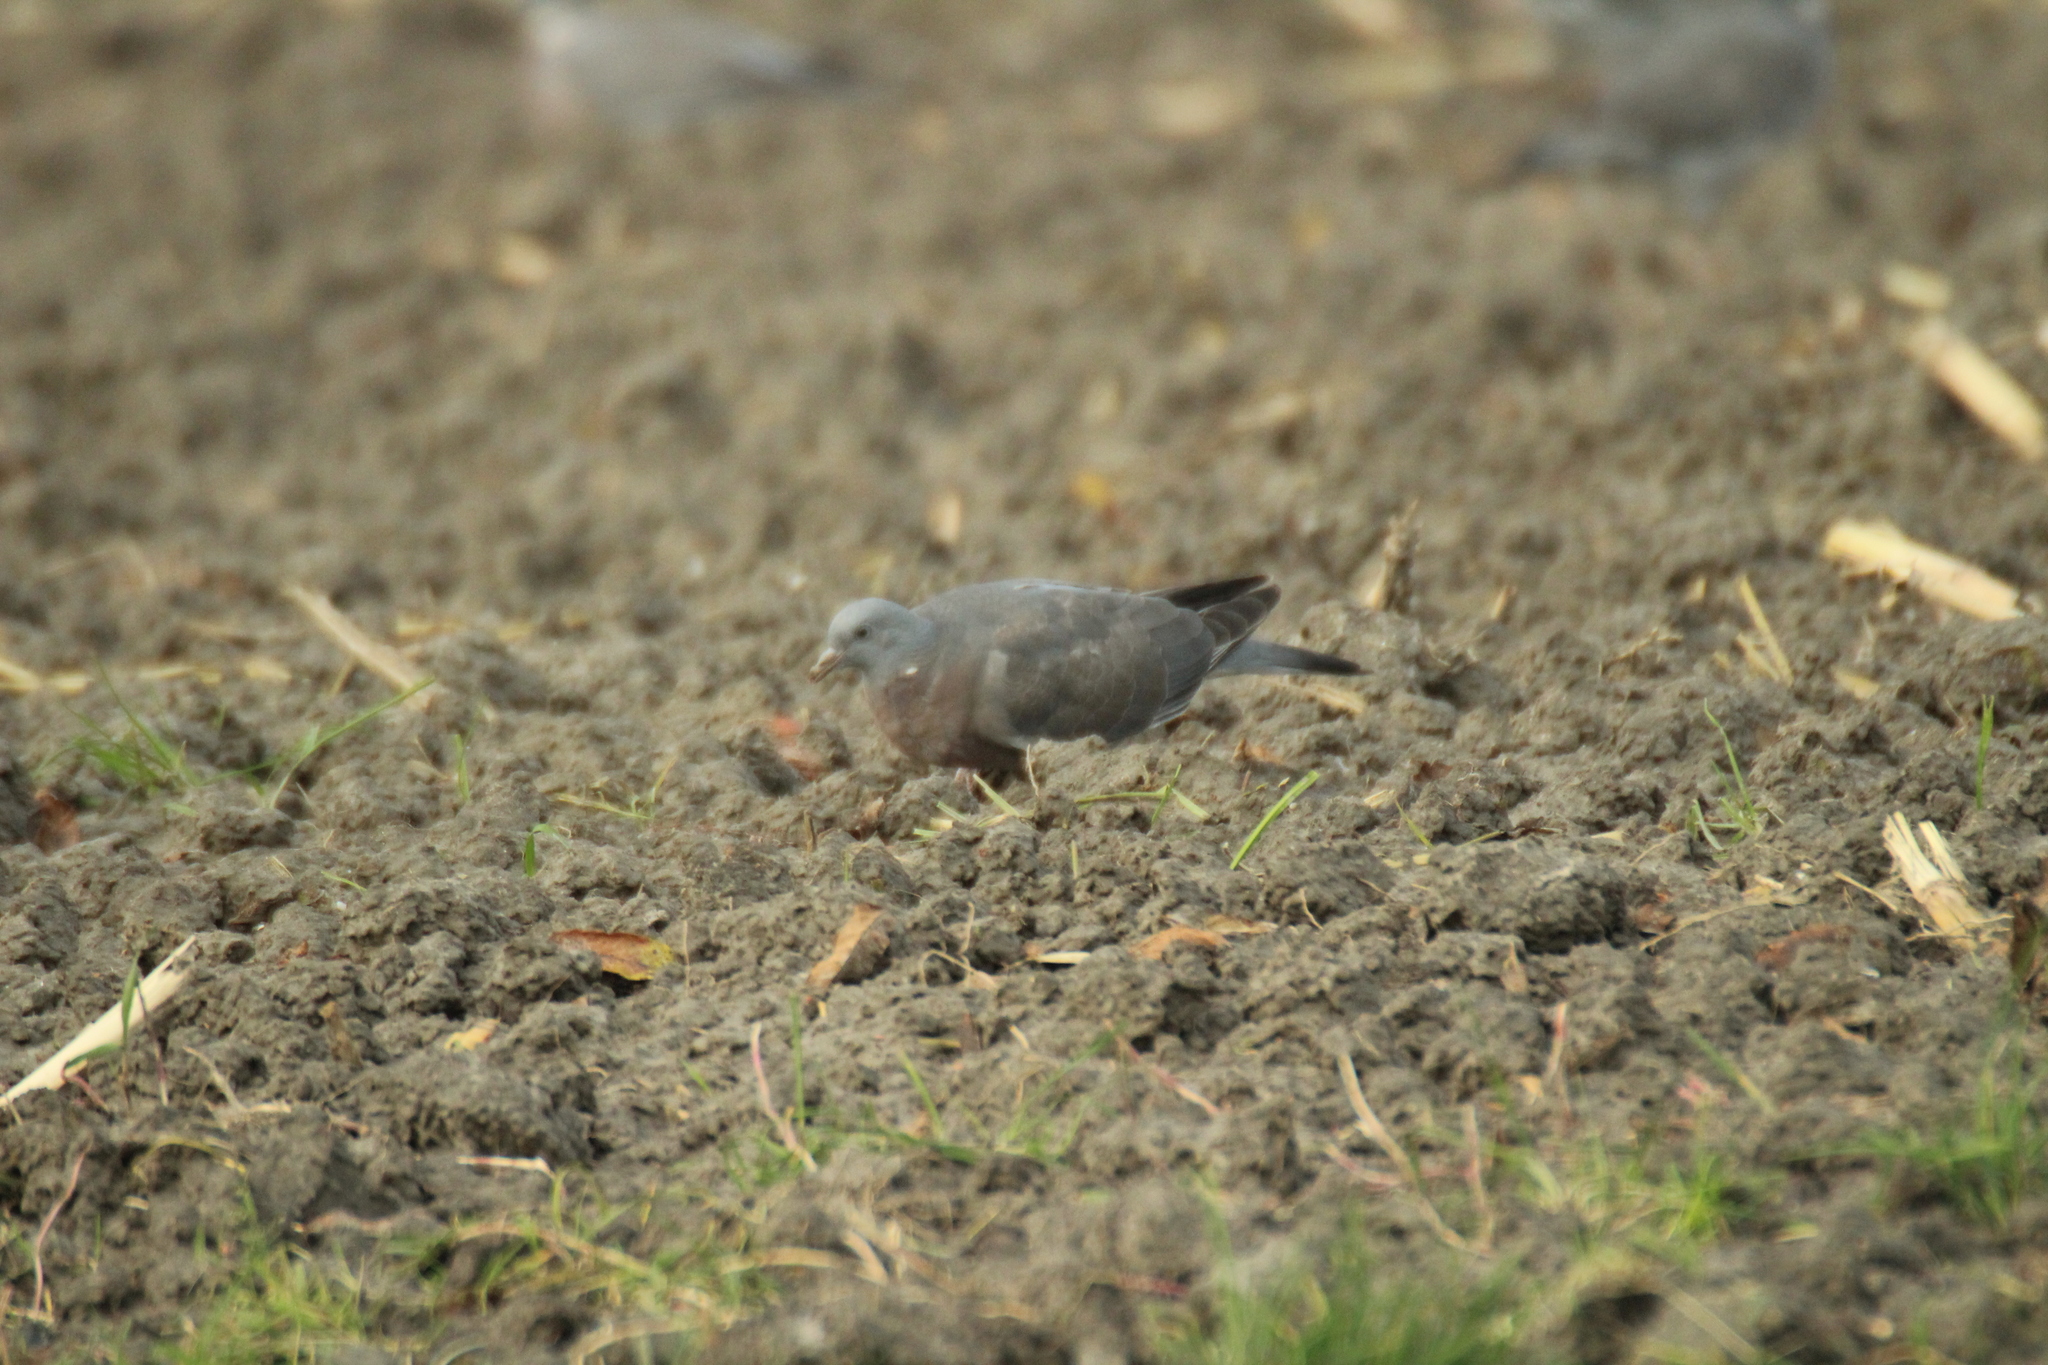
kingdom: Animalia
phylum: Chordata
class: Aves
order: Columbiformes
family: Columbidae
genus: Columba
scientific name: Columba palumbus
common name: Common wood pigeon
